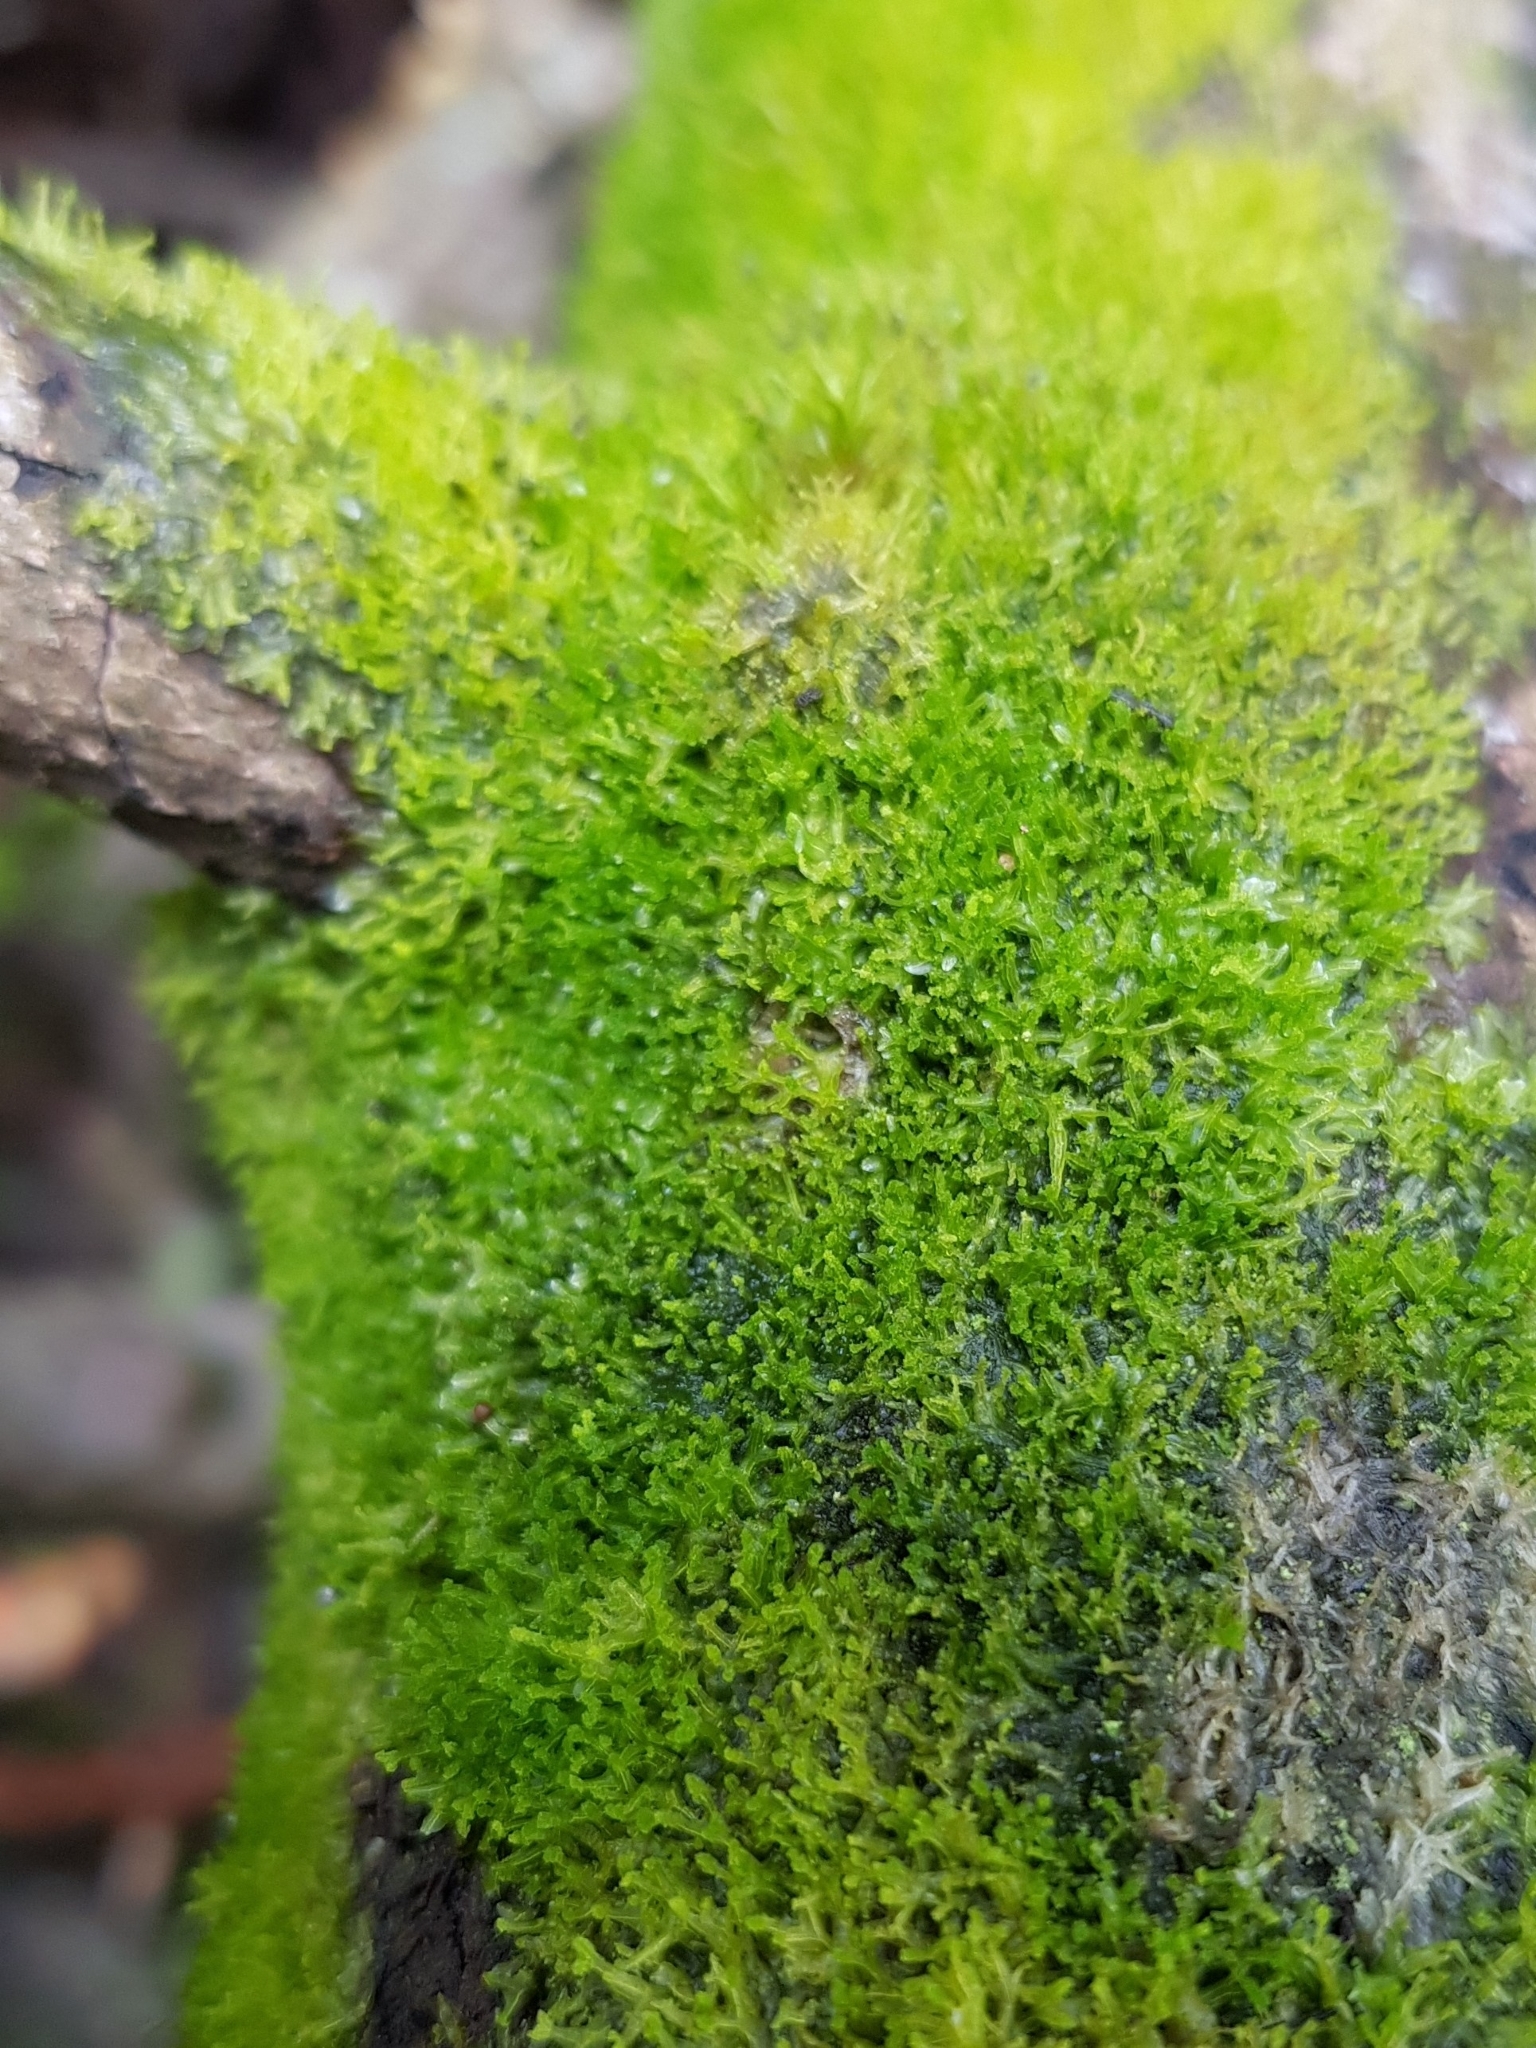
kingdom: Plantae
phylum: Marchantiophyta
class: Jungermanniopsida
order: Metzgeriales
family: Metzgeriaceae
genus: Metzgeria
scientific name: Metzgeria violacea
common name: Blueish veilwort
